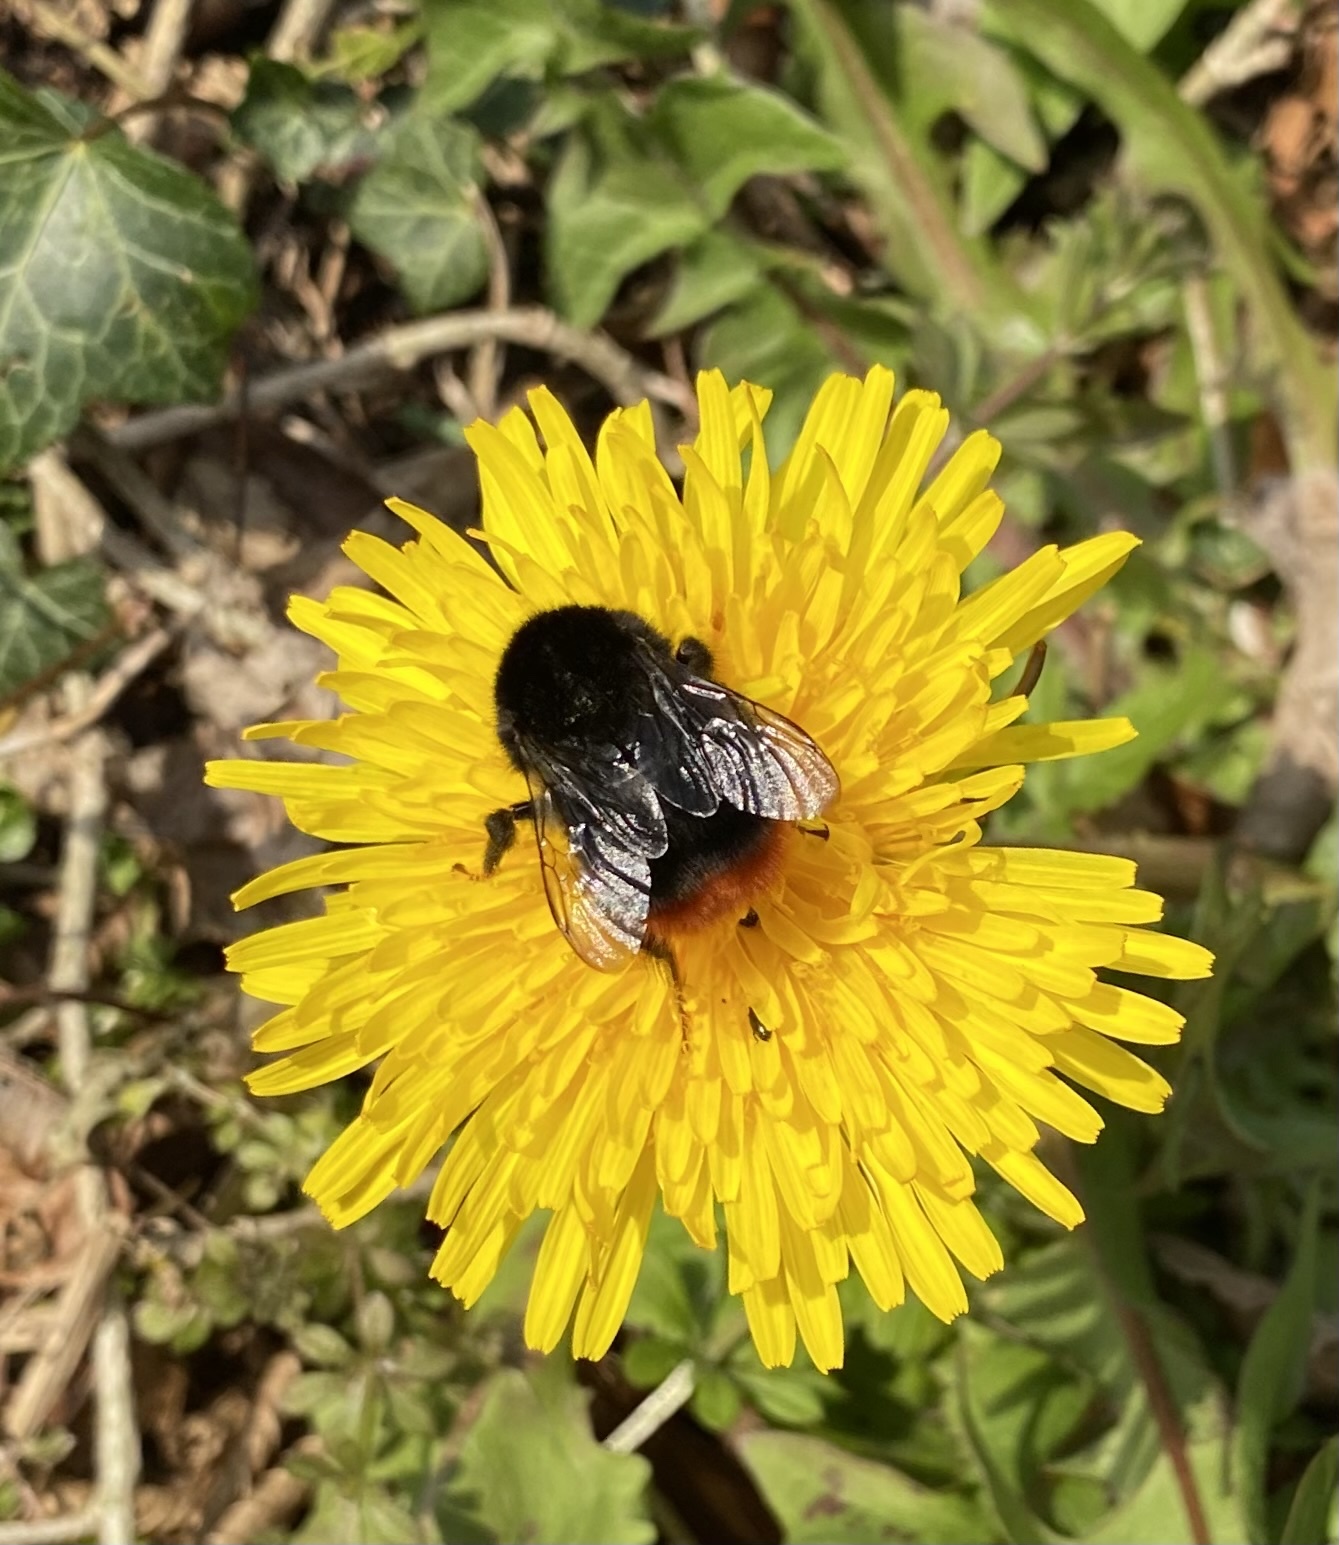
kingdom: Animalia
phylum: Arthropoda
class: Insecta
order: Hymenoptera
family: Apidae
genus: Bombus
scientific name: Bombus lapidarius
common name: Large red-tailed humble-bee
